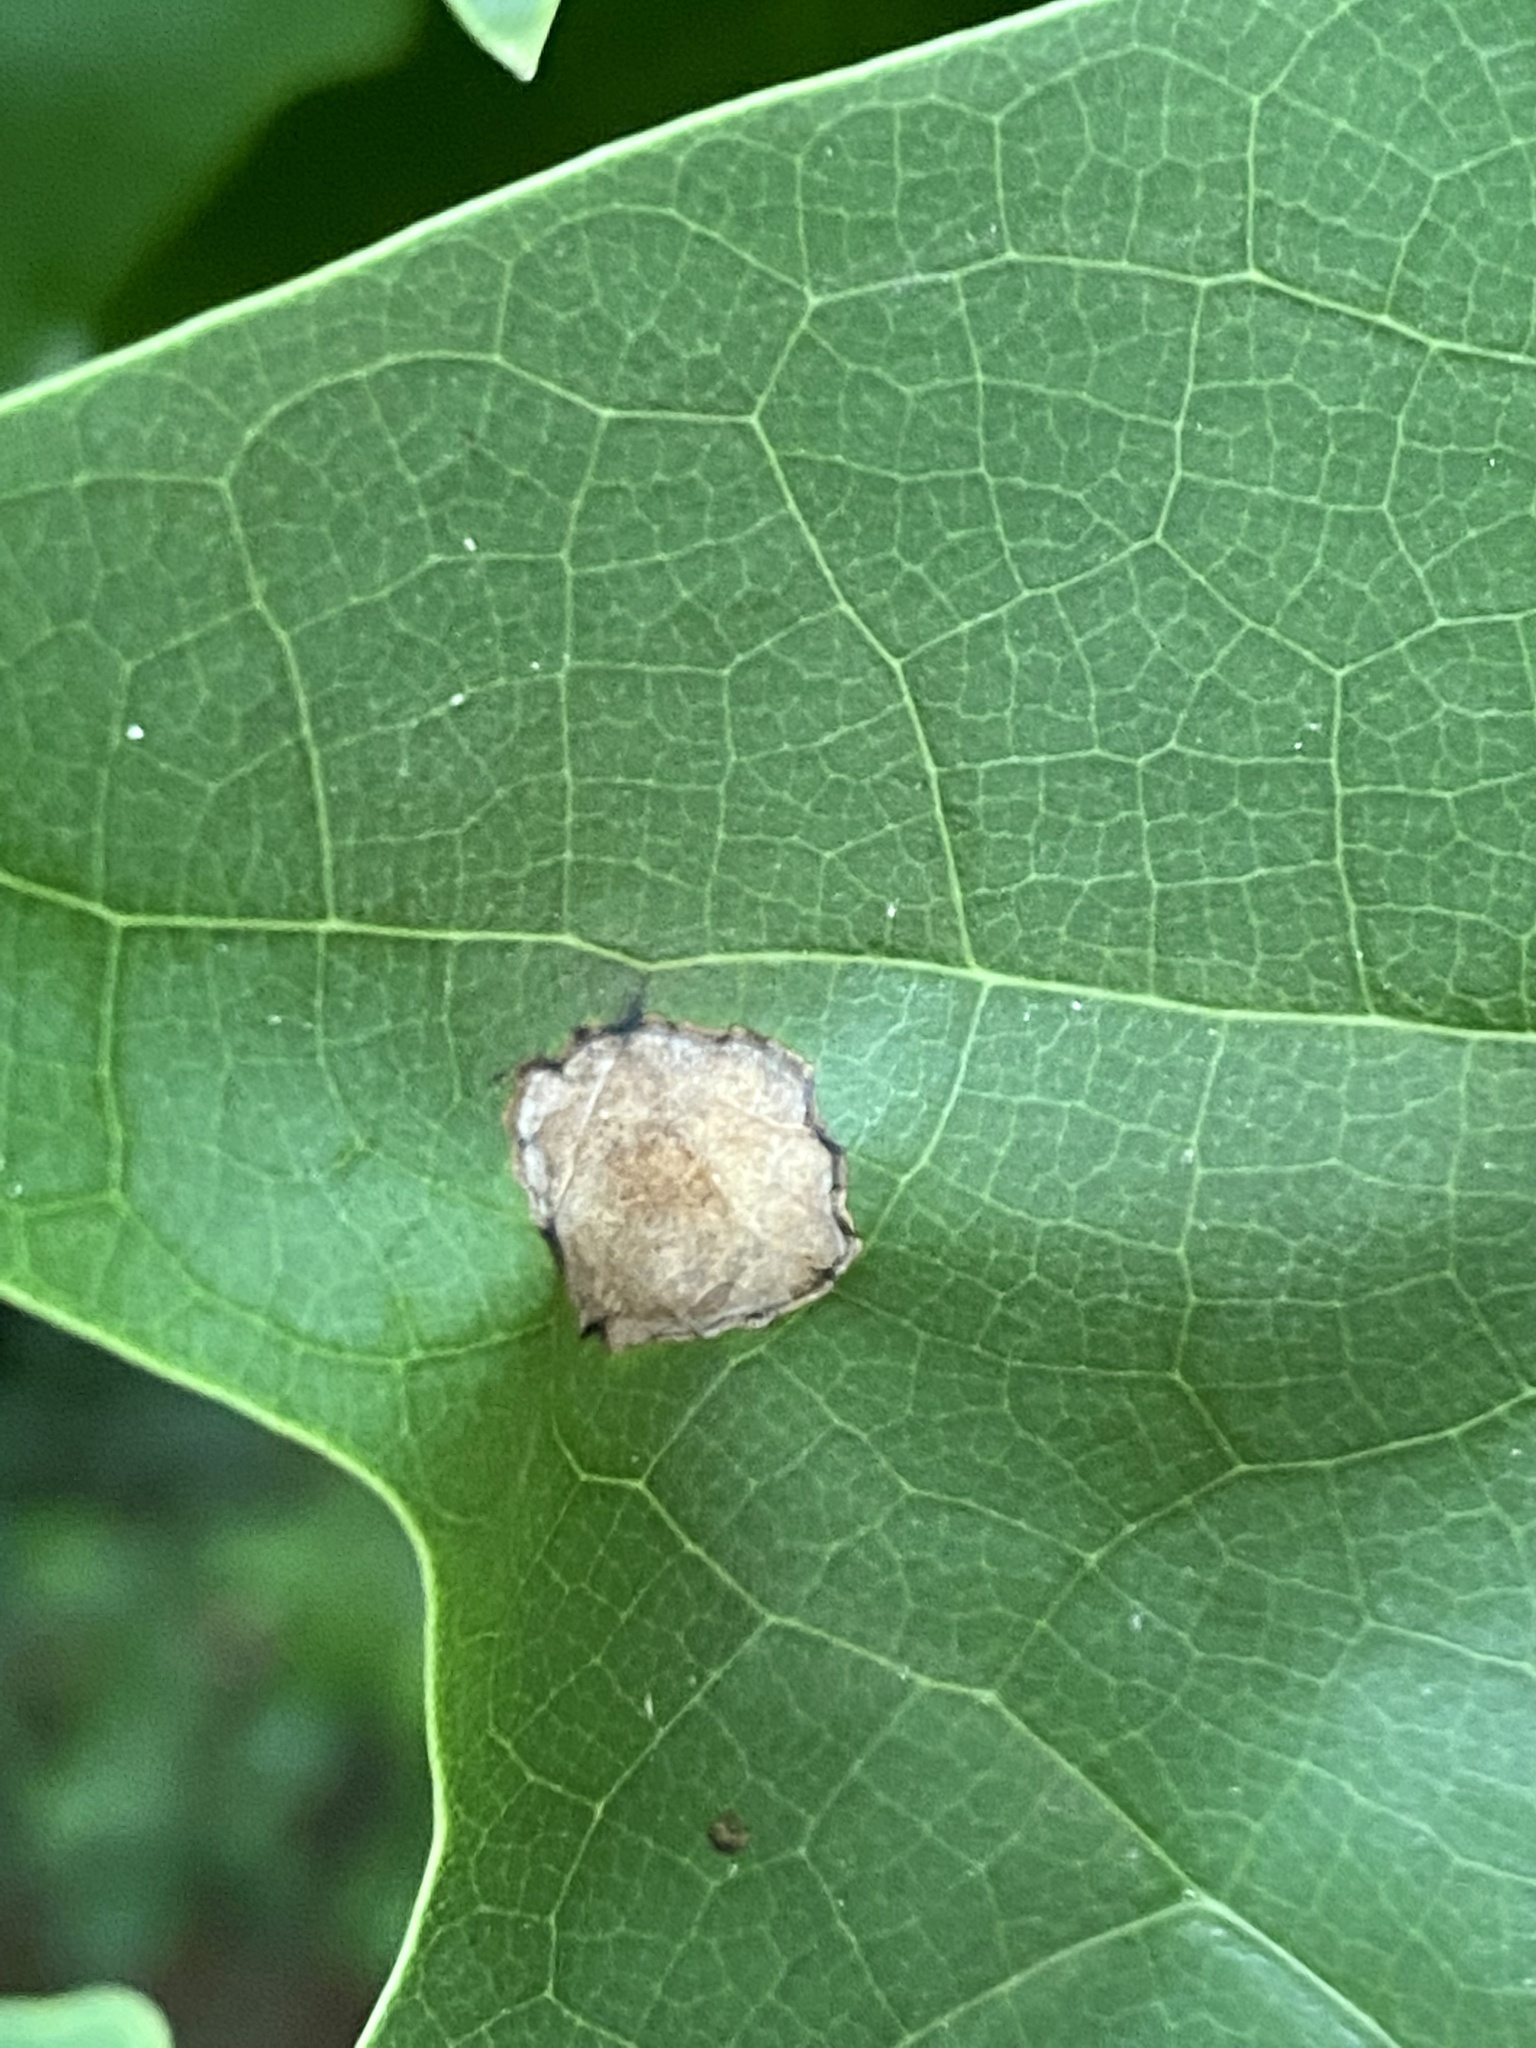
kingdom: Animalia
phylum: Arthropoda
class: Insecta
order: Diptera
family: Cecidomyiidae
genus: Resseliella
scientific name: Resseliella liriodendri
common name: Tulip tree leaf spot gall midge
